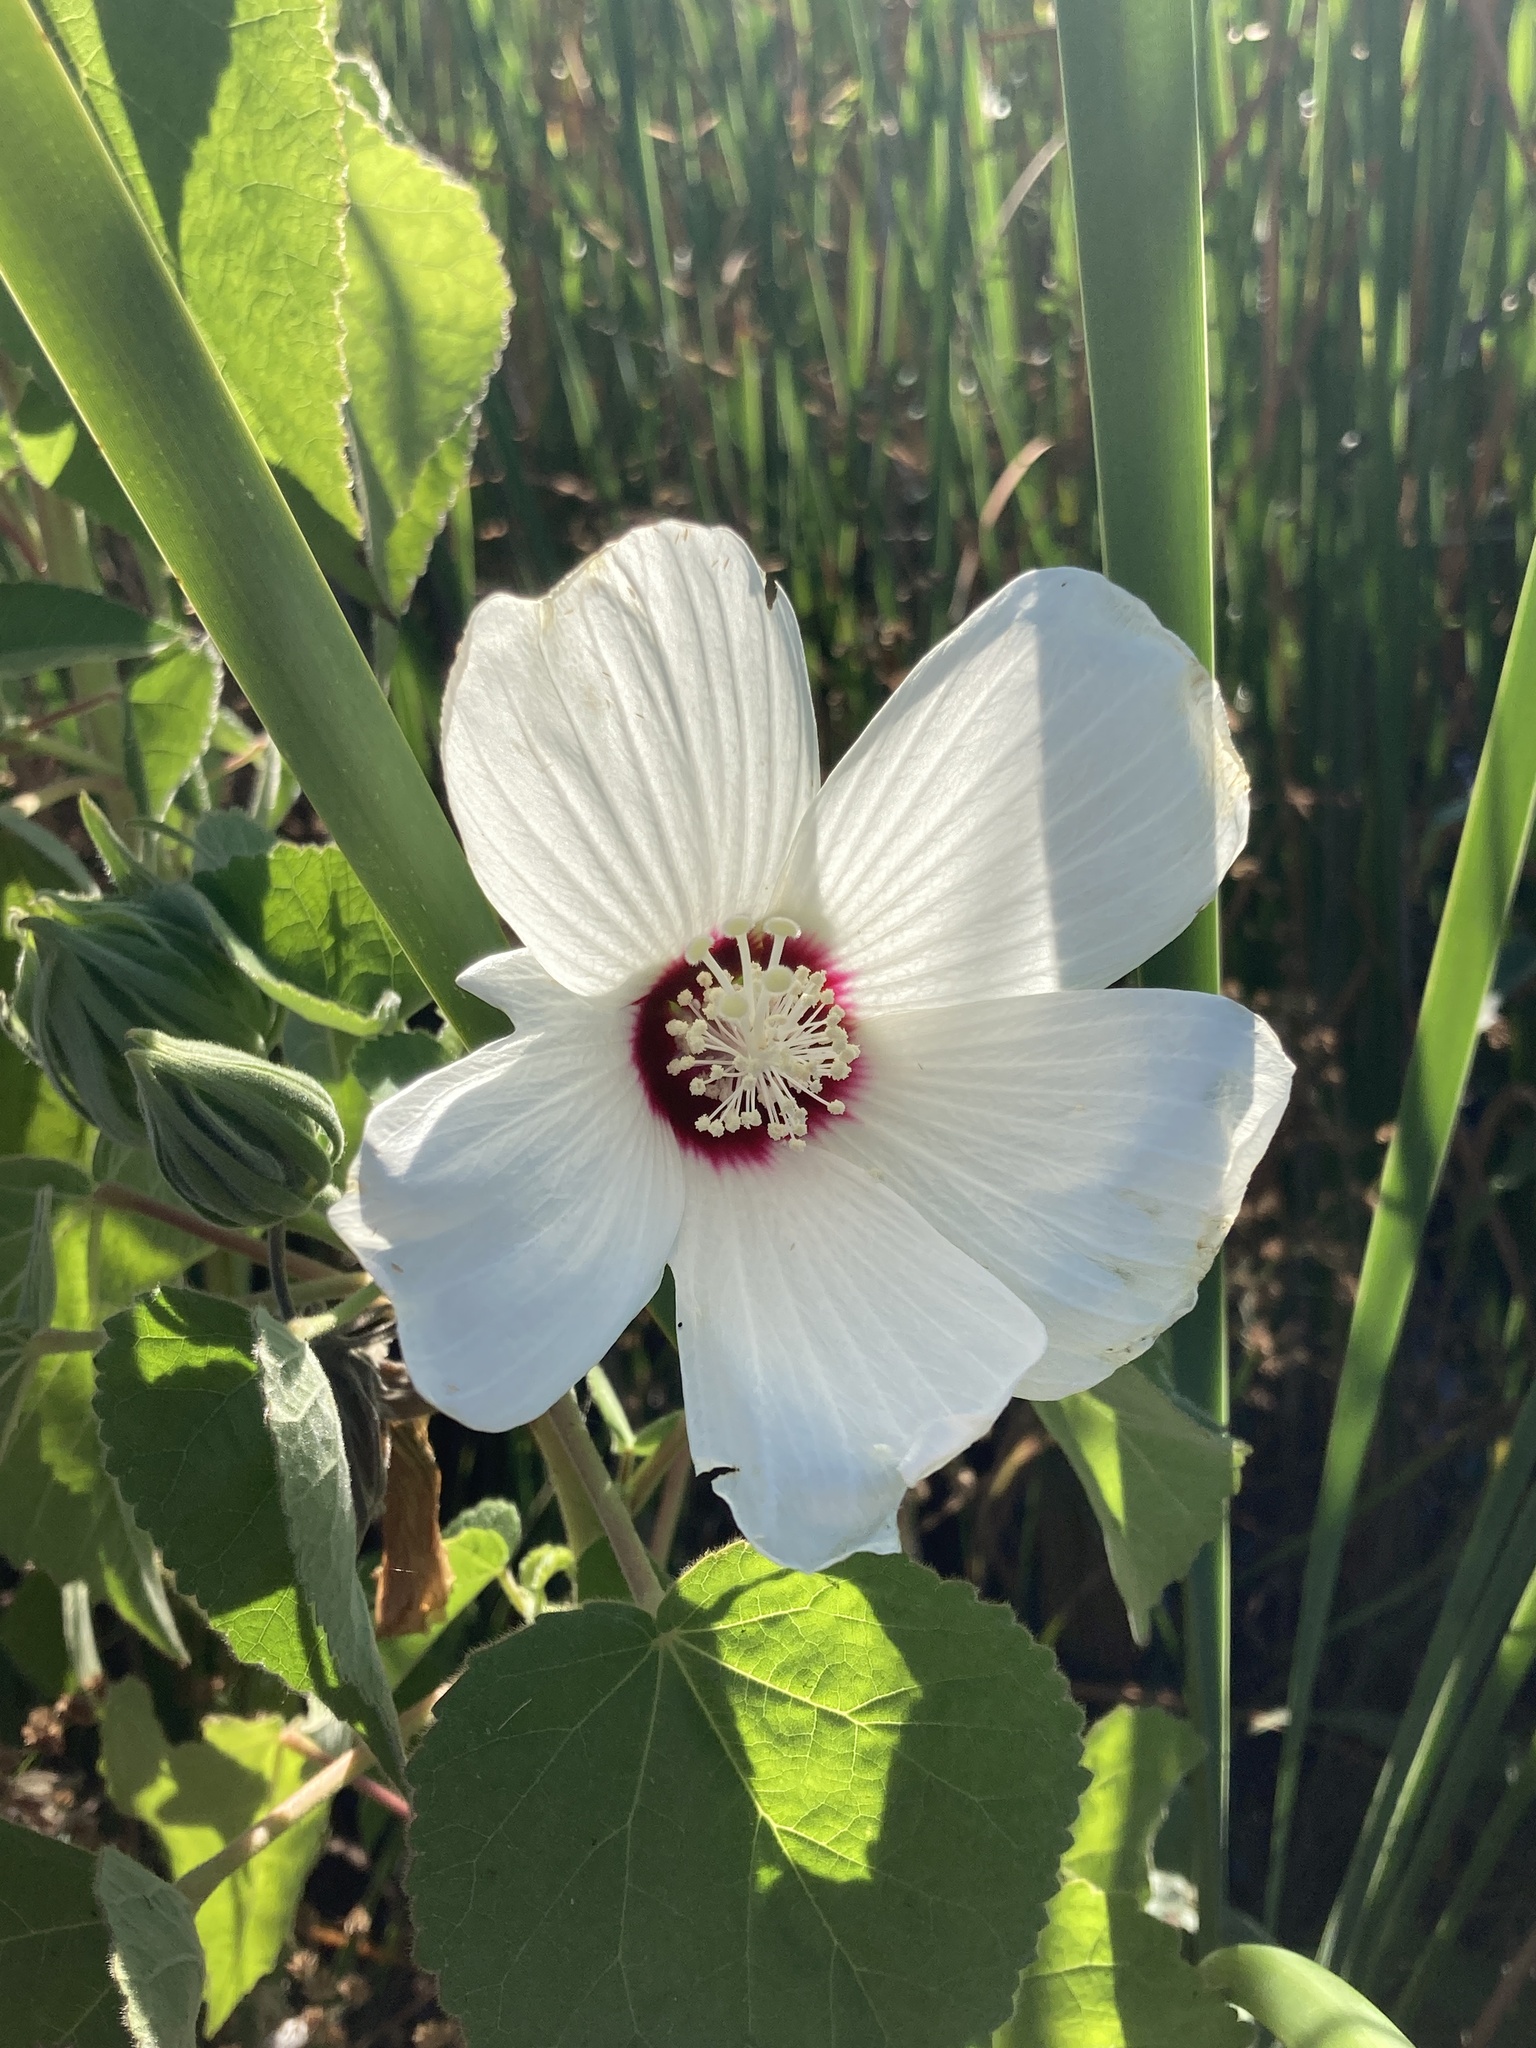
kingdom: Plantae
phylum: Tracheophyta
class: Magnoliopsida
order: Malvales
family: Malvaceae
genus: Hibiscus
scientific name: Hibiscus moscheutos
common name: Common rose-mallow
